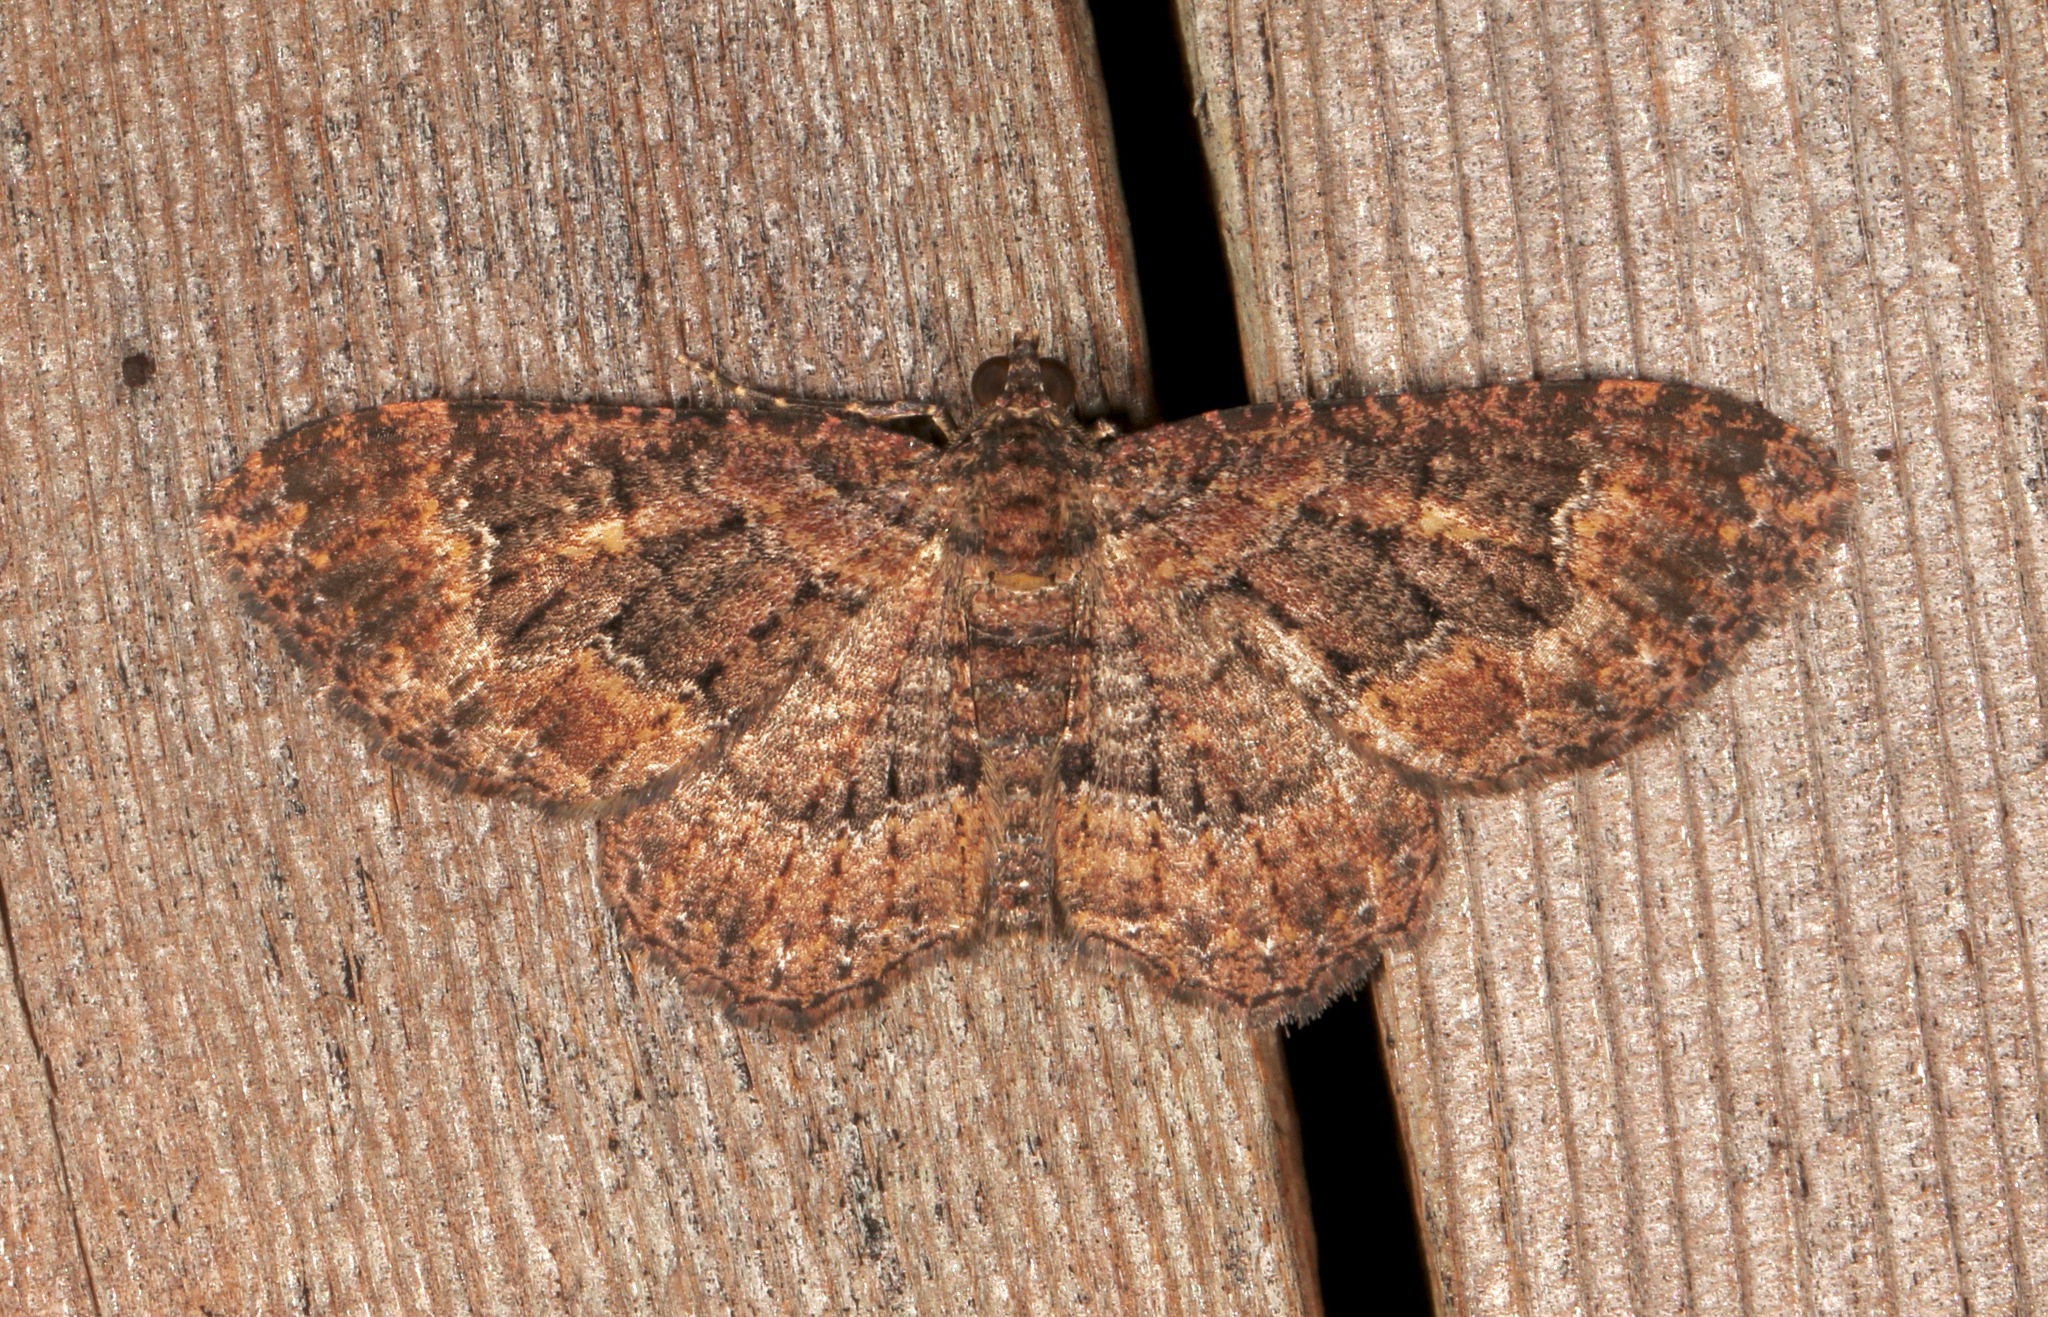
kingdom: Animalia
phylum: Arthropoda
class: Insecta
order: Lepidoptera
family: Geometridae
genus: Disclisioprocta
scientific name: Disclisioprocta stellata
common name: Somber carpet
